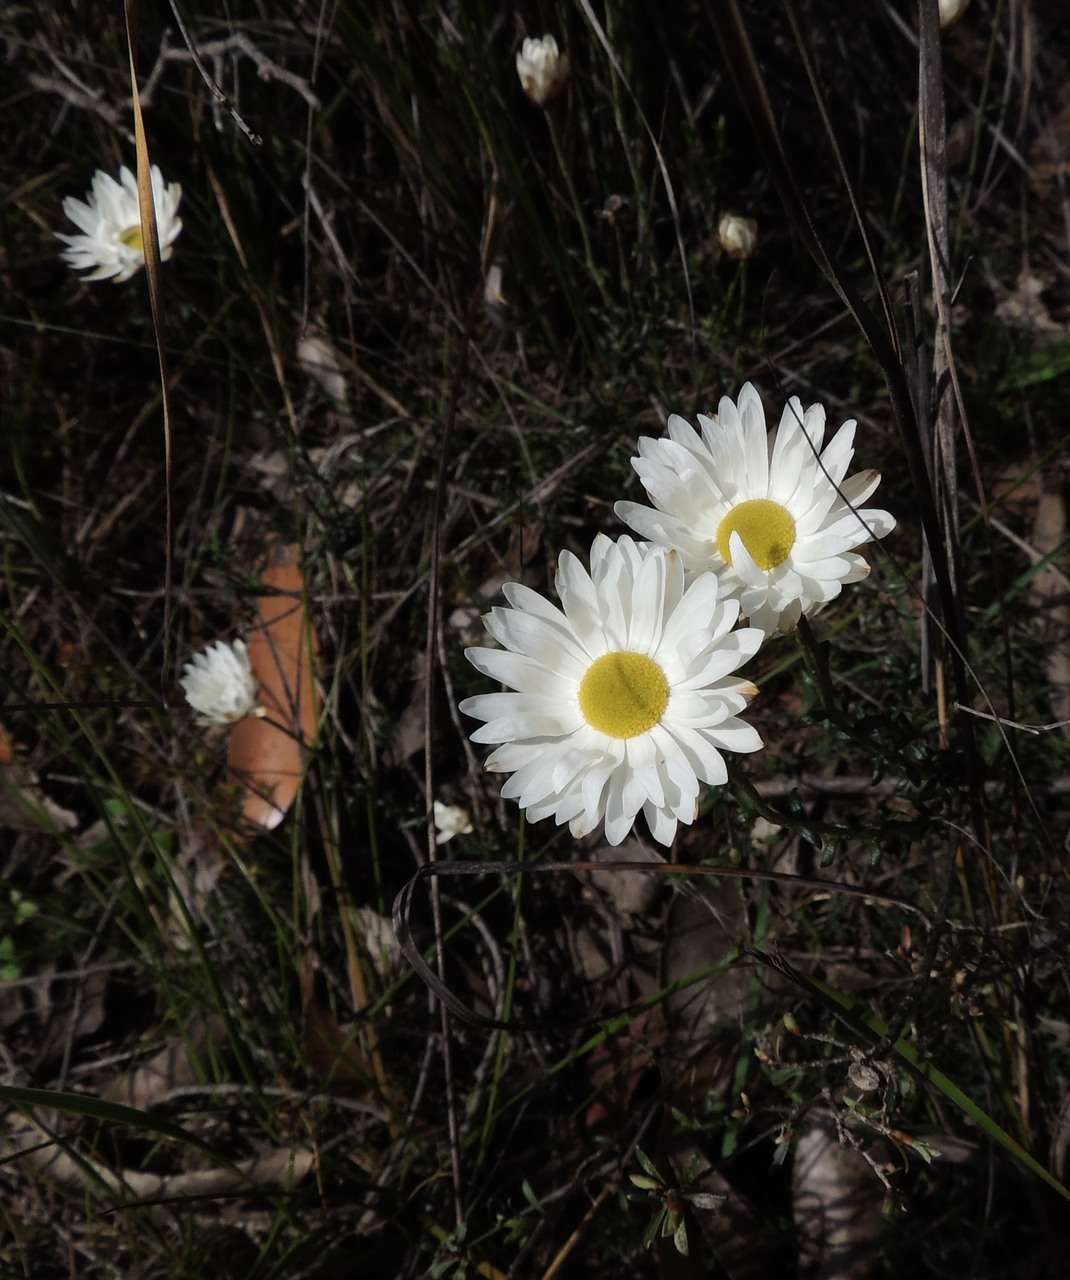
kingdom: Plantae
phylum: Tracheophyta
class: Magnoliopsida
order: Asterales
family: Asteraceae
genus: Argentipallium
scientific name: Argentipallium obtusifolium
